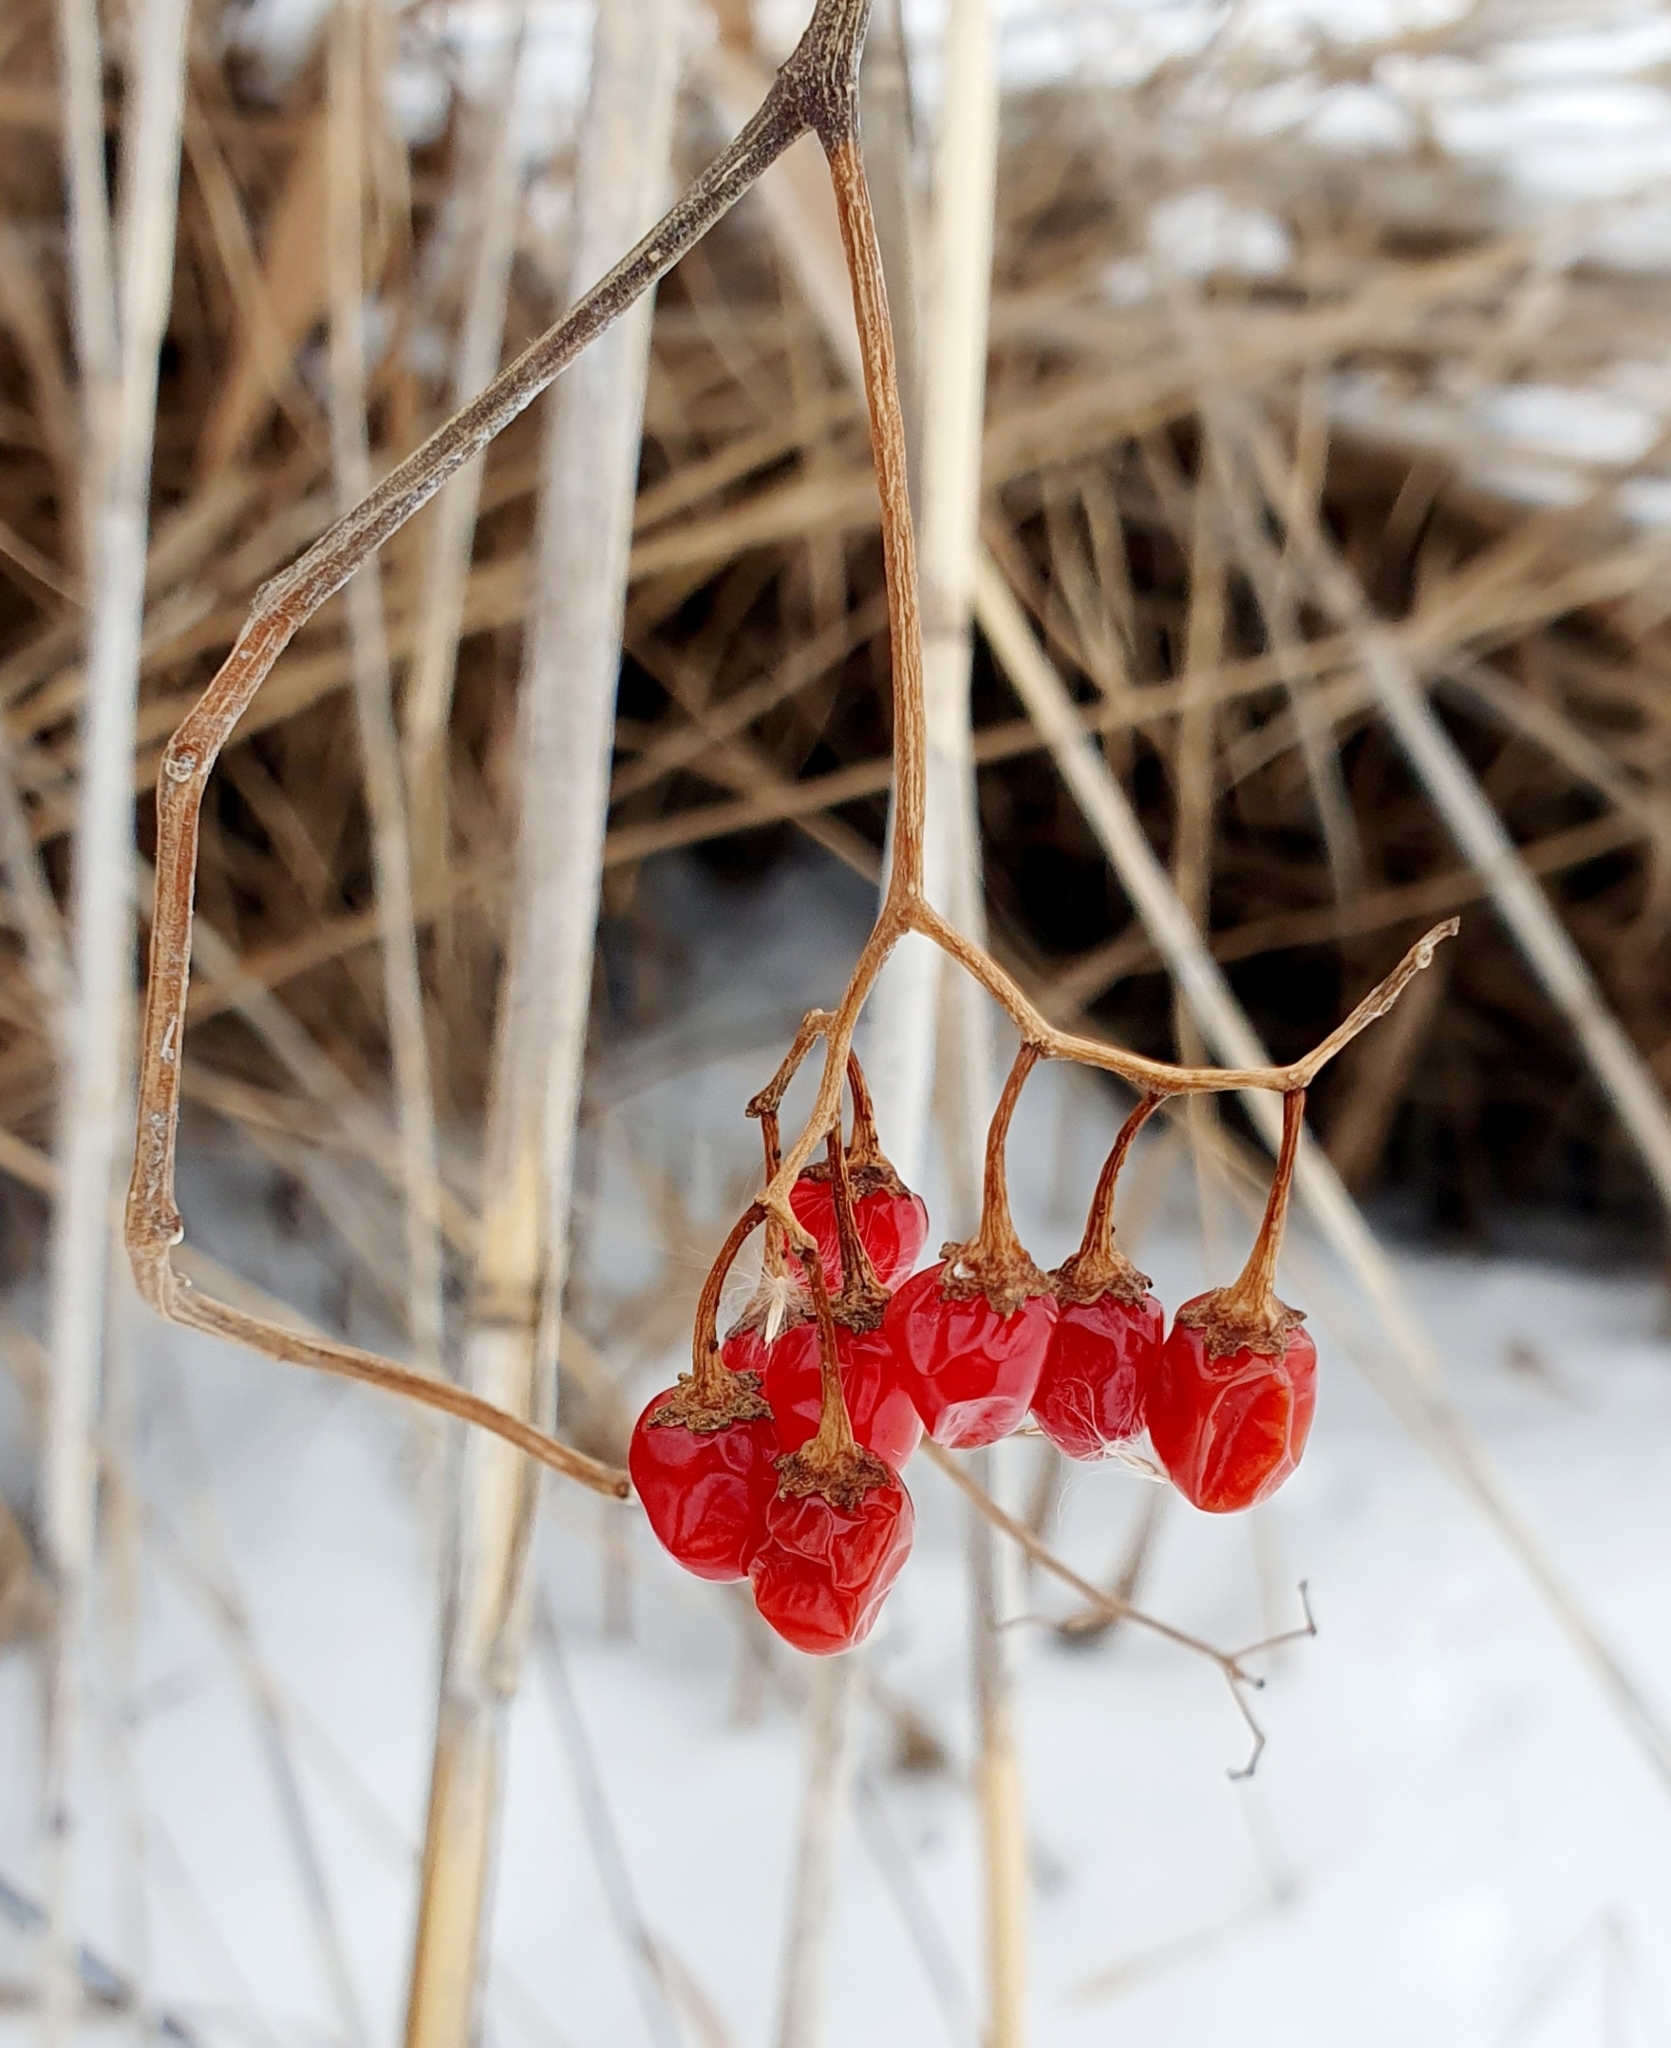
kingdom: Plantae
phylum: Tracheophyta
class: Magnoliopsida
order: Solanales
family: Solanaceae
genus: Solanum
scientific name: Solanum dulcamara
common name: Climbing nightshade
